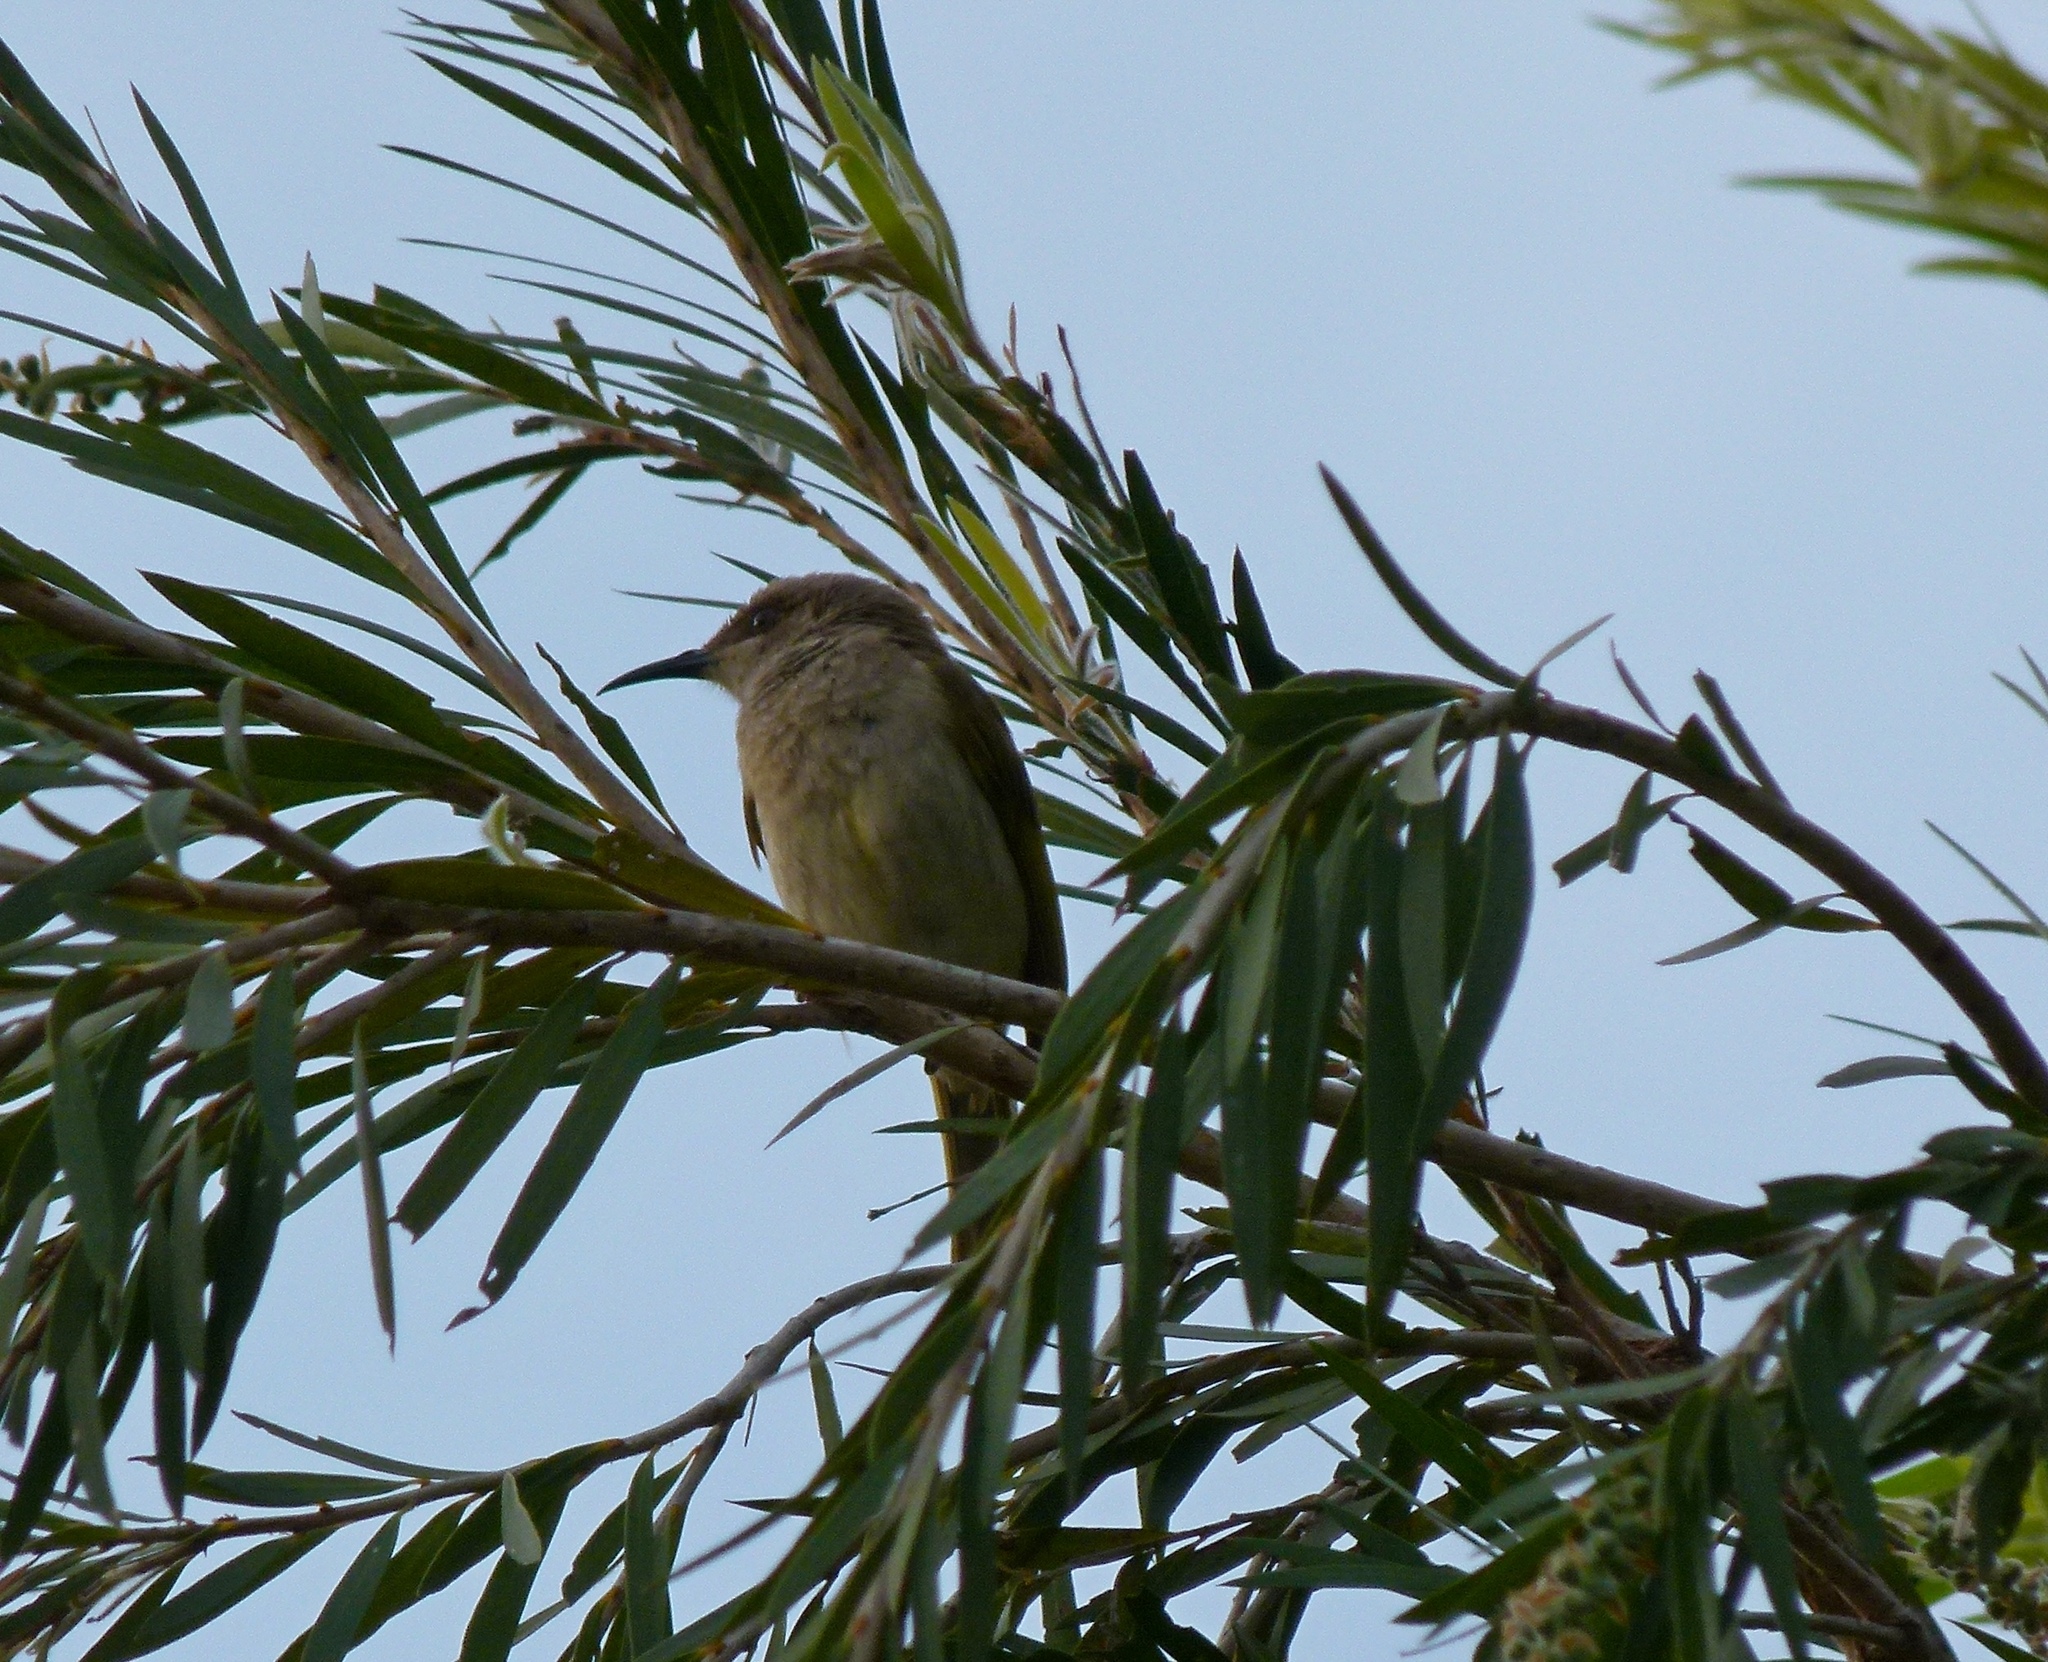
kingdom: Animalia
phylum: Chordata
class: Aves
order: Passeriformes
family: Meliphagidae
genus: Lichmera
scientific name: Lichmera indistincta
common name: Brown honeyeater
